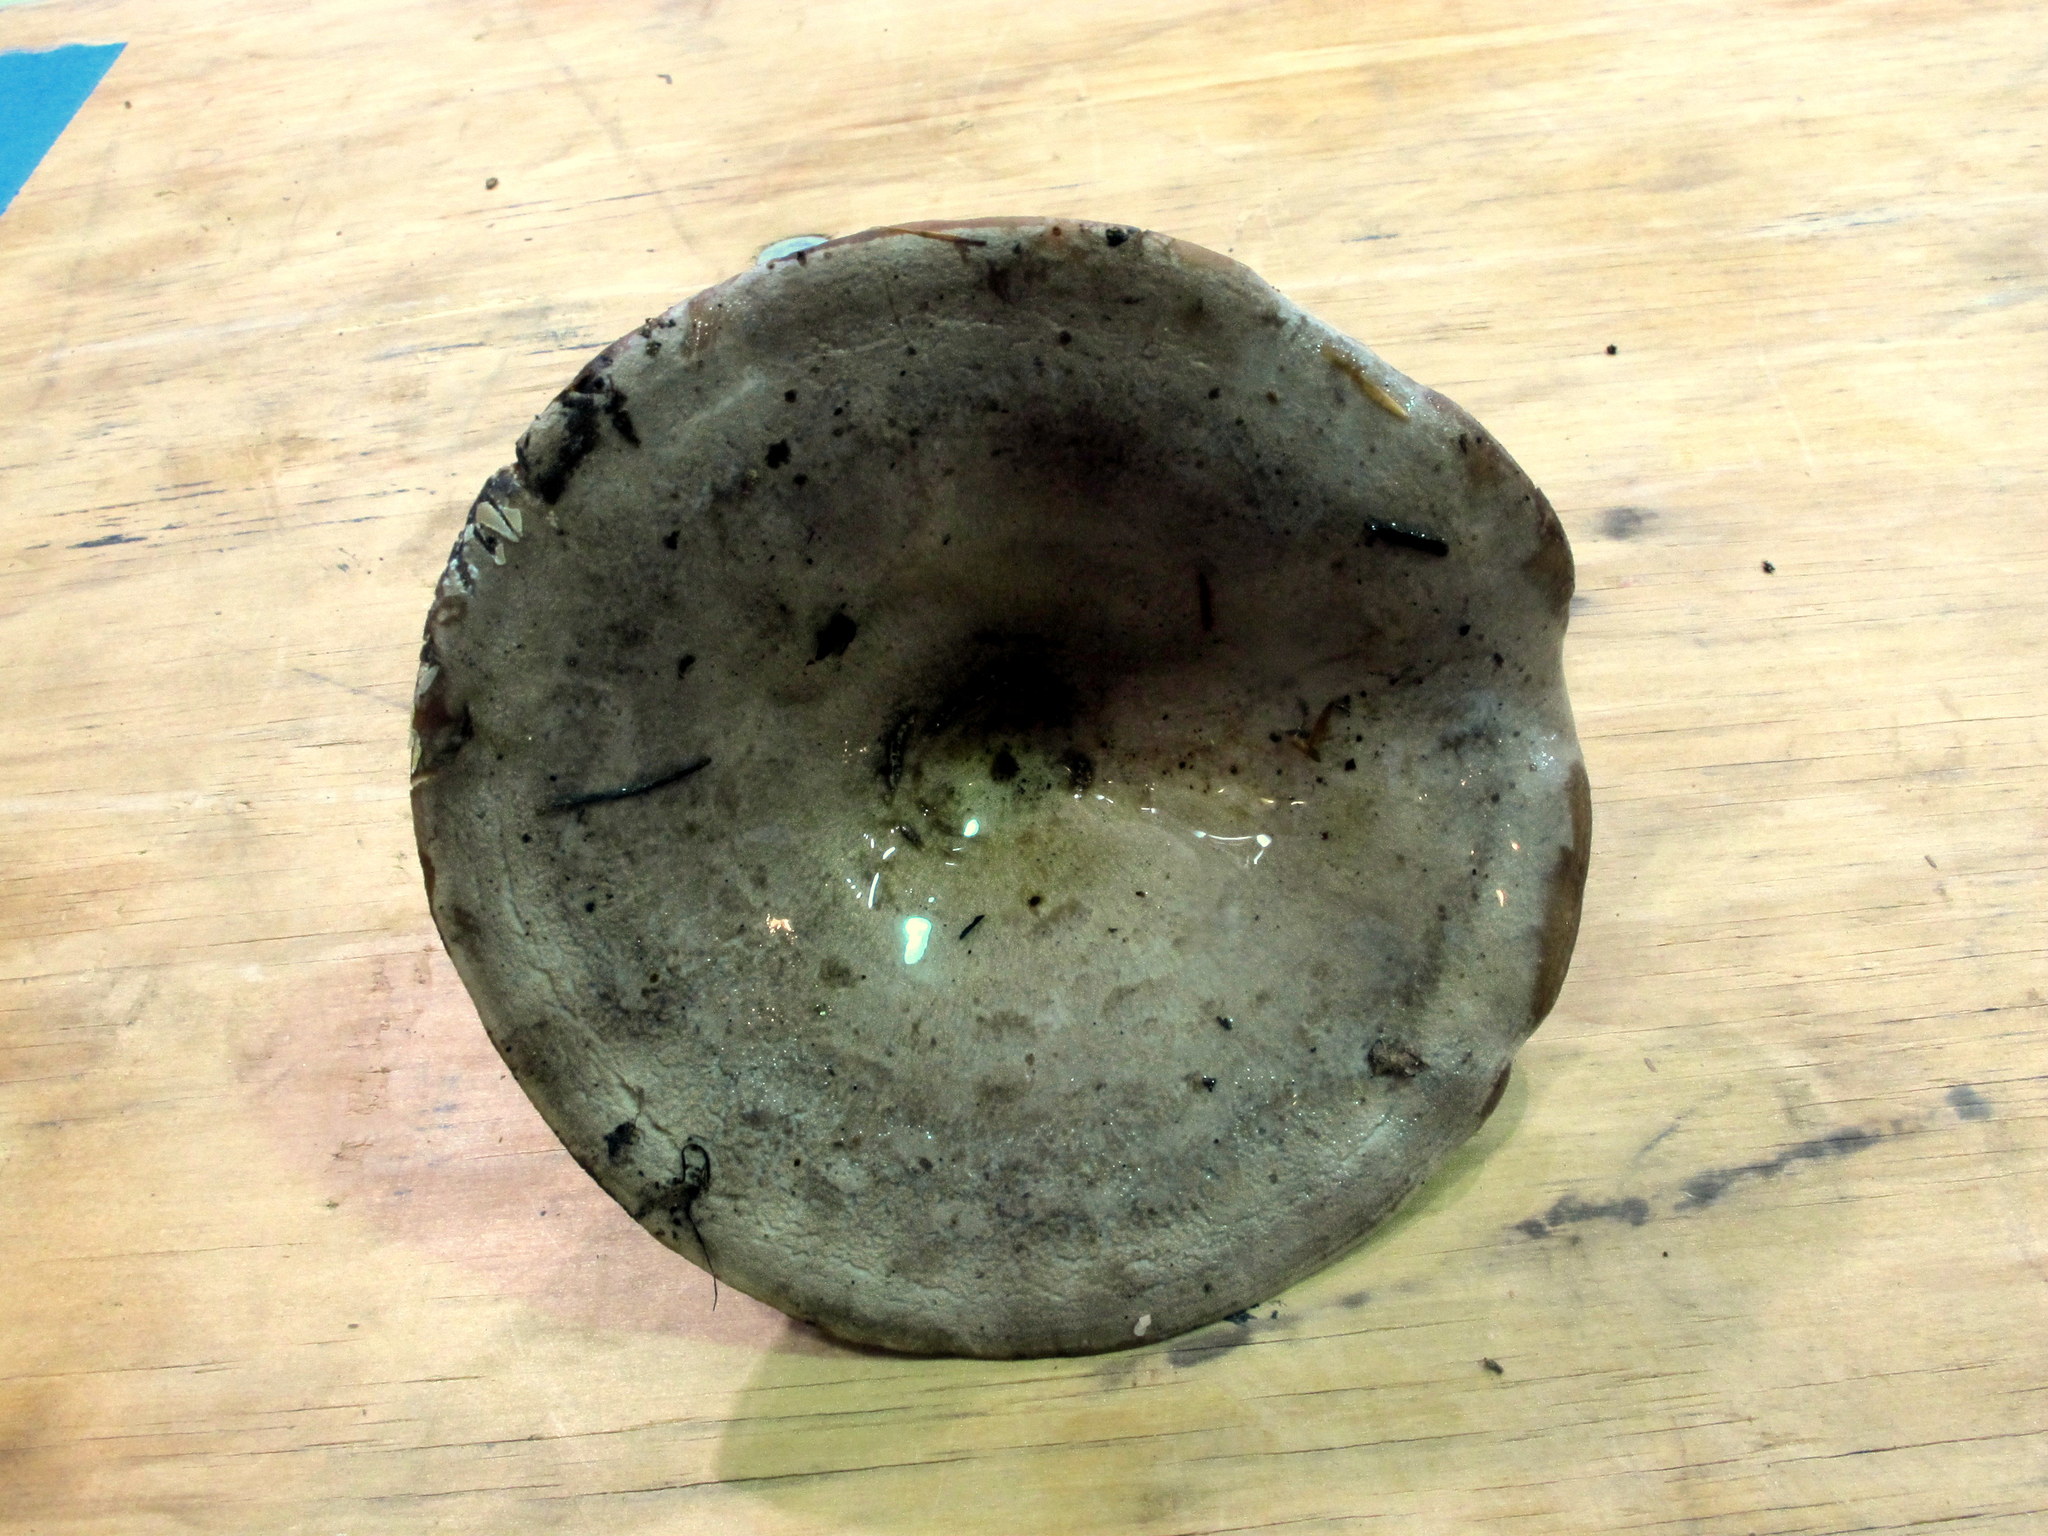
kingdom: Fungi
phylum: Basidiomycota
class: Agaricomycetes
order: Russulales
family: Russulaceae
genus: Lactarius
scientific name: Lactarius argillaceifolius
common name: Clay-gilled milkcap
